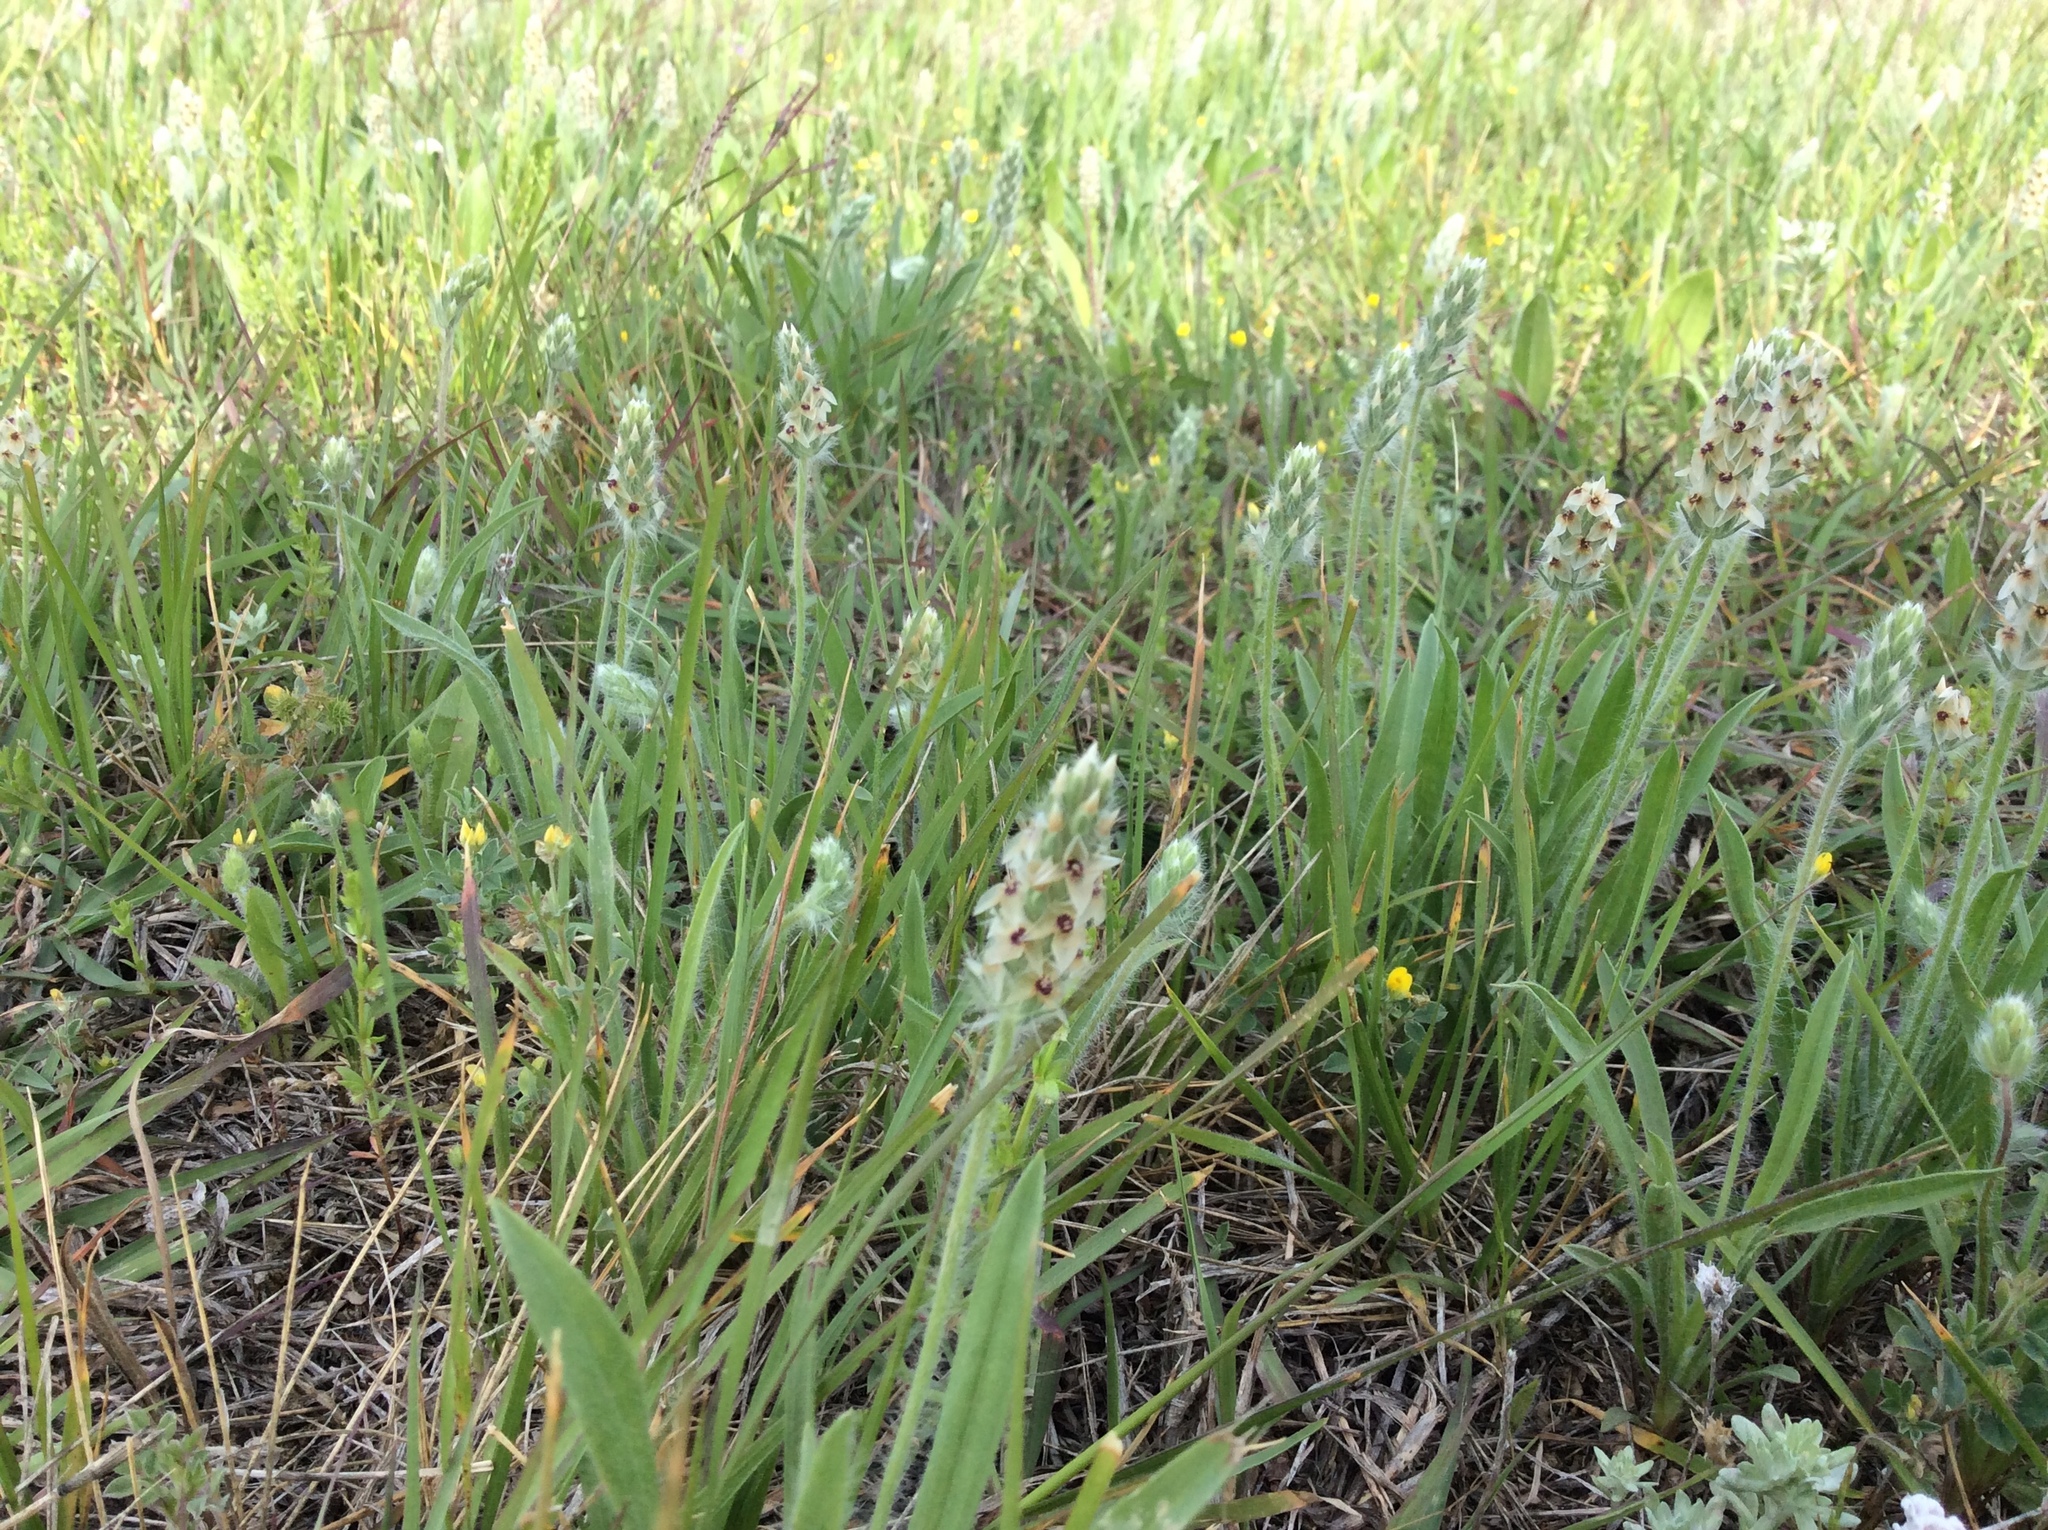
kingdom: Plantae
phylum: Tracheophyta
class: Magnoliopsida
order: Lamiales
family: Plantaginaceae
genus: Plantago
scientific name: Plantago helleri
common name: Heller's plantain
